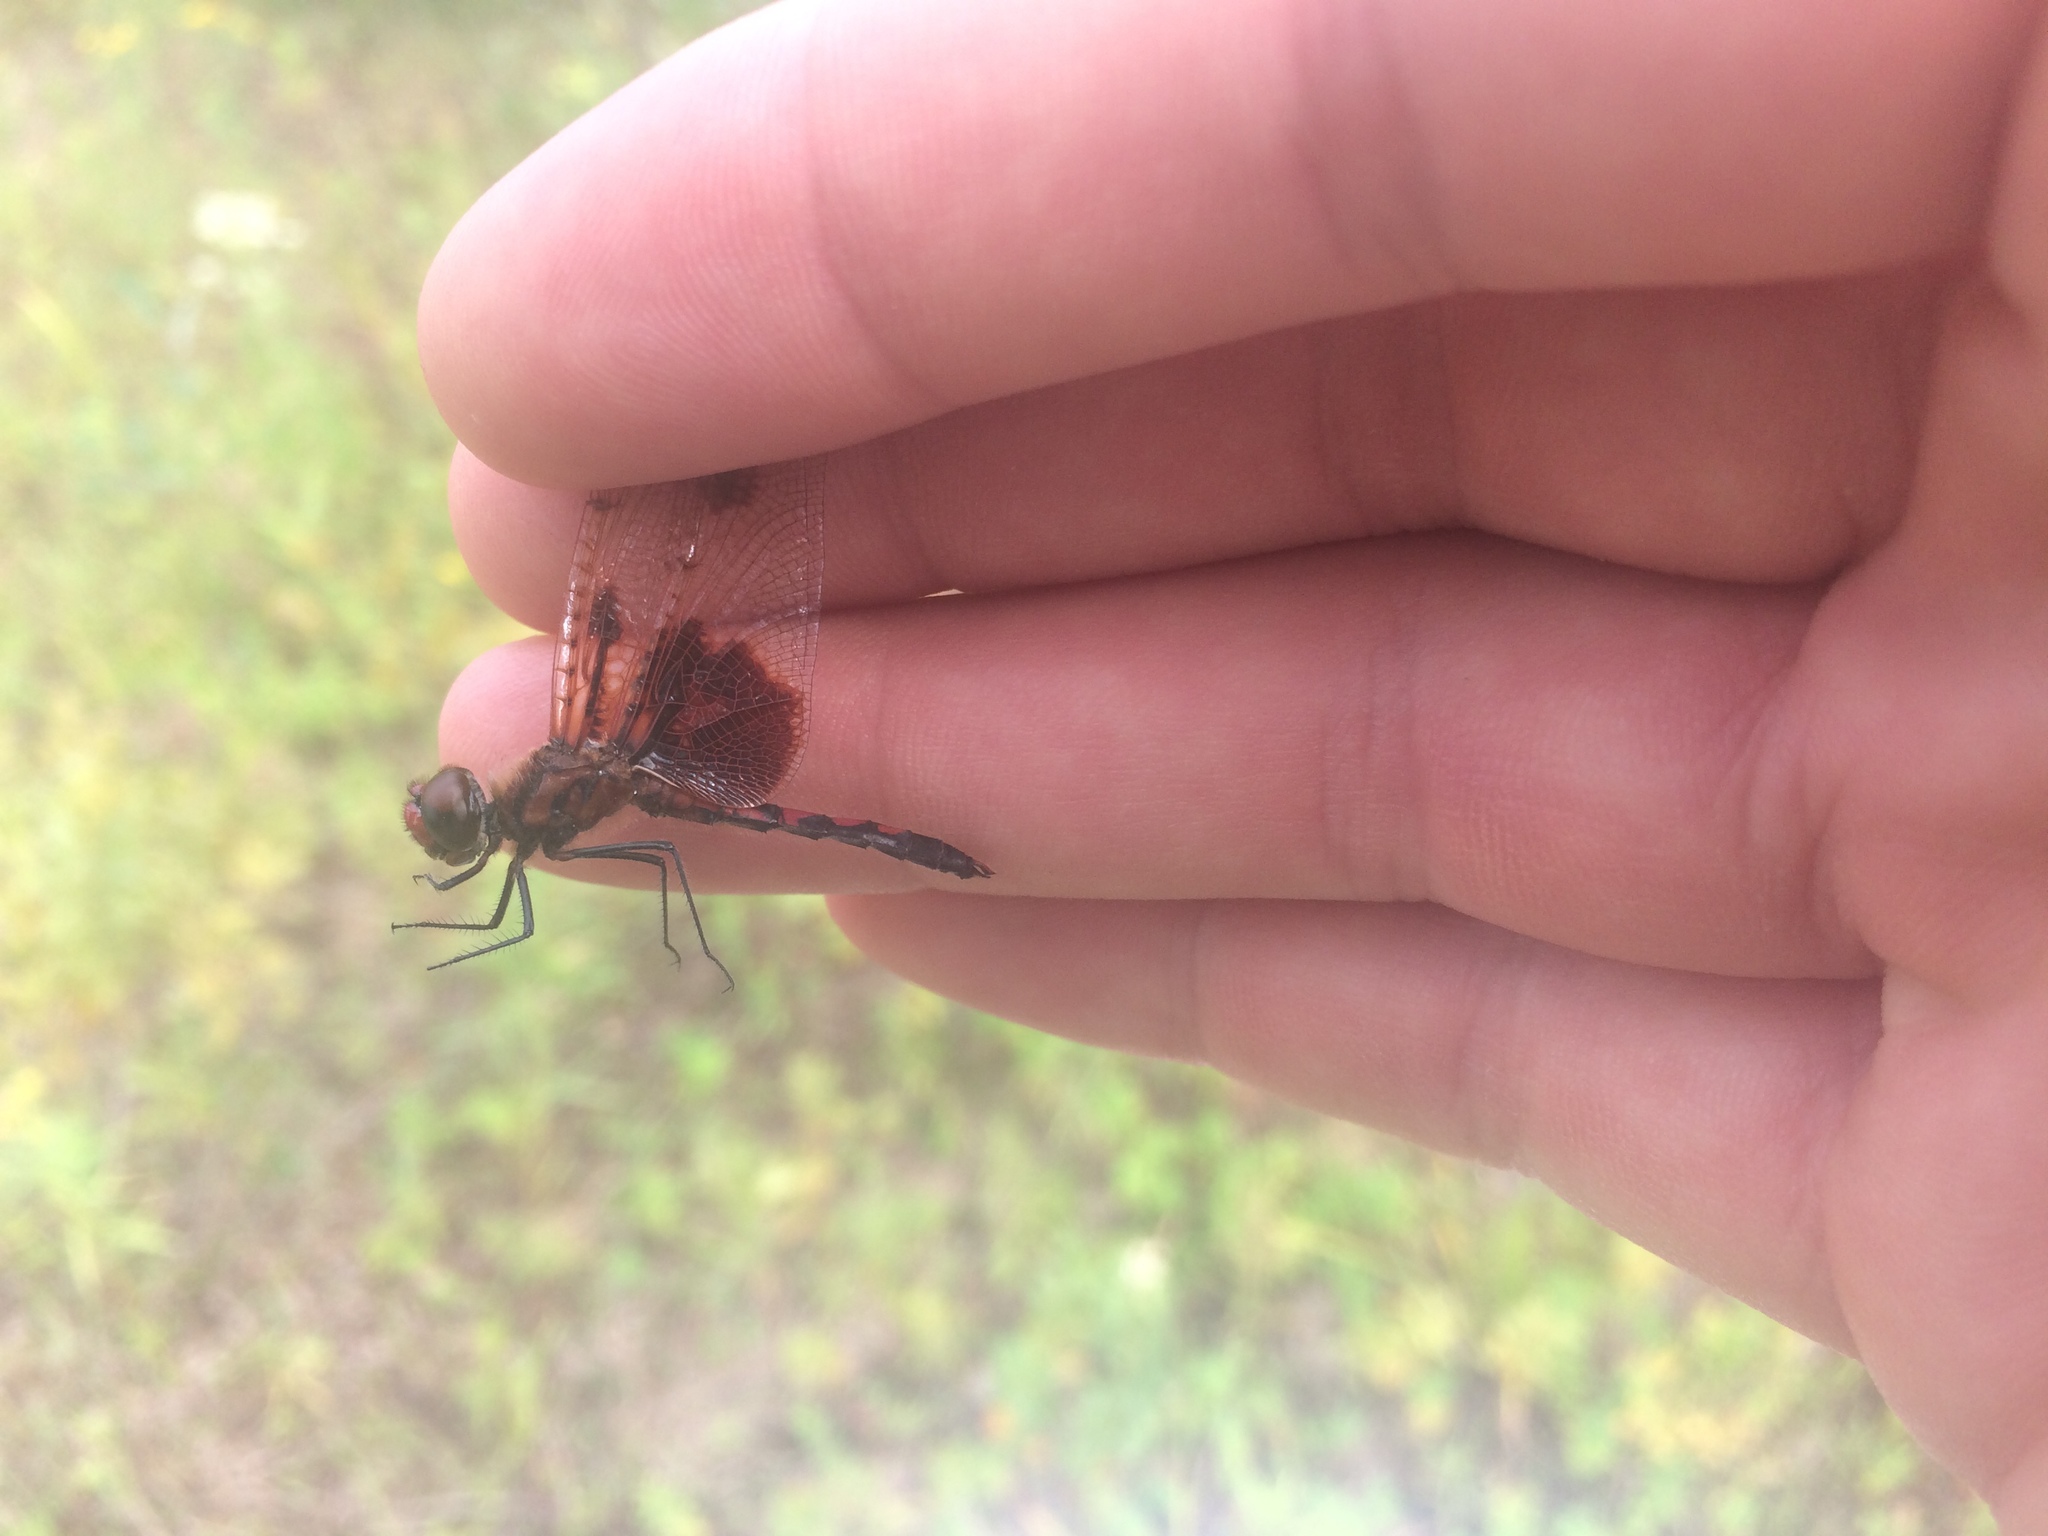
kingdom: Animalia
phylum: Arthropoda
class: Insecta
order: Odonata
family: Libellulidae
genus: Celithemis
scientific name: Celithemis elisa
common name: Calico pennant
